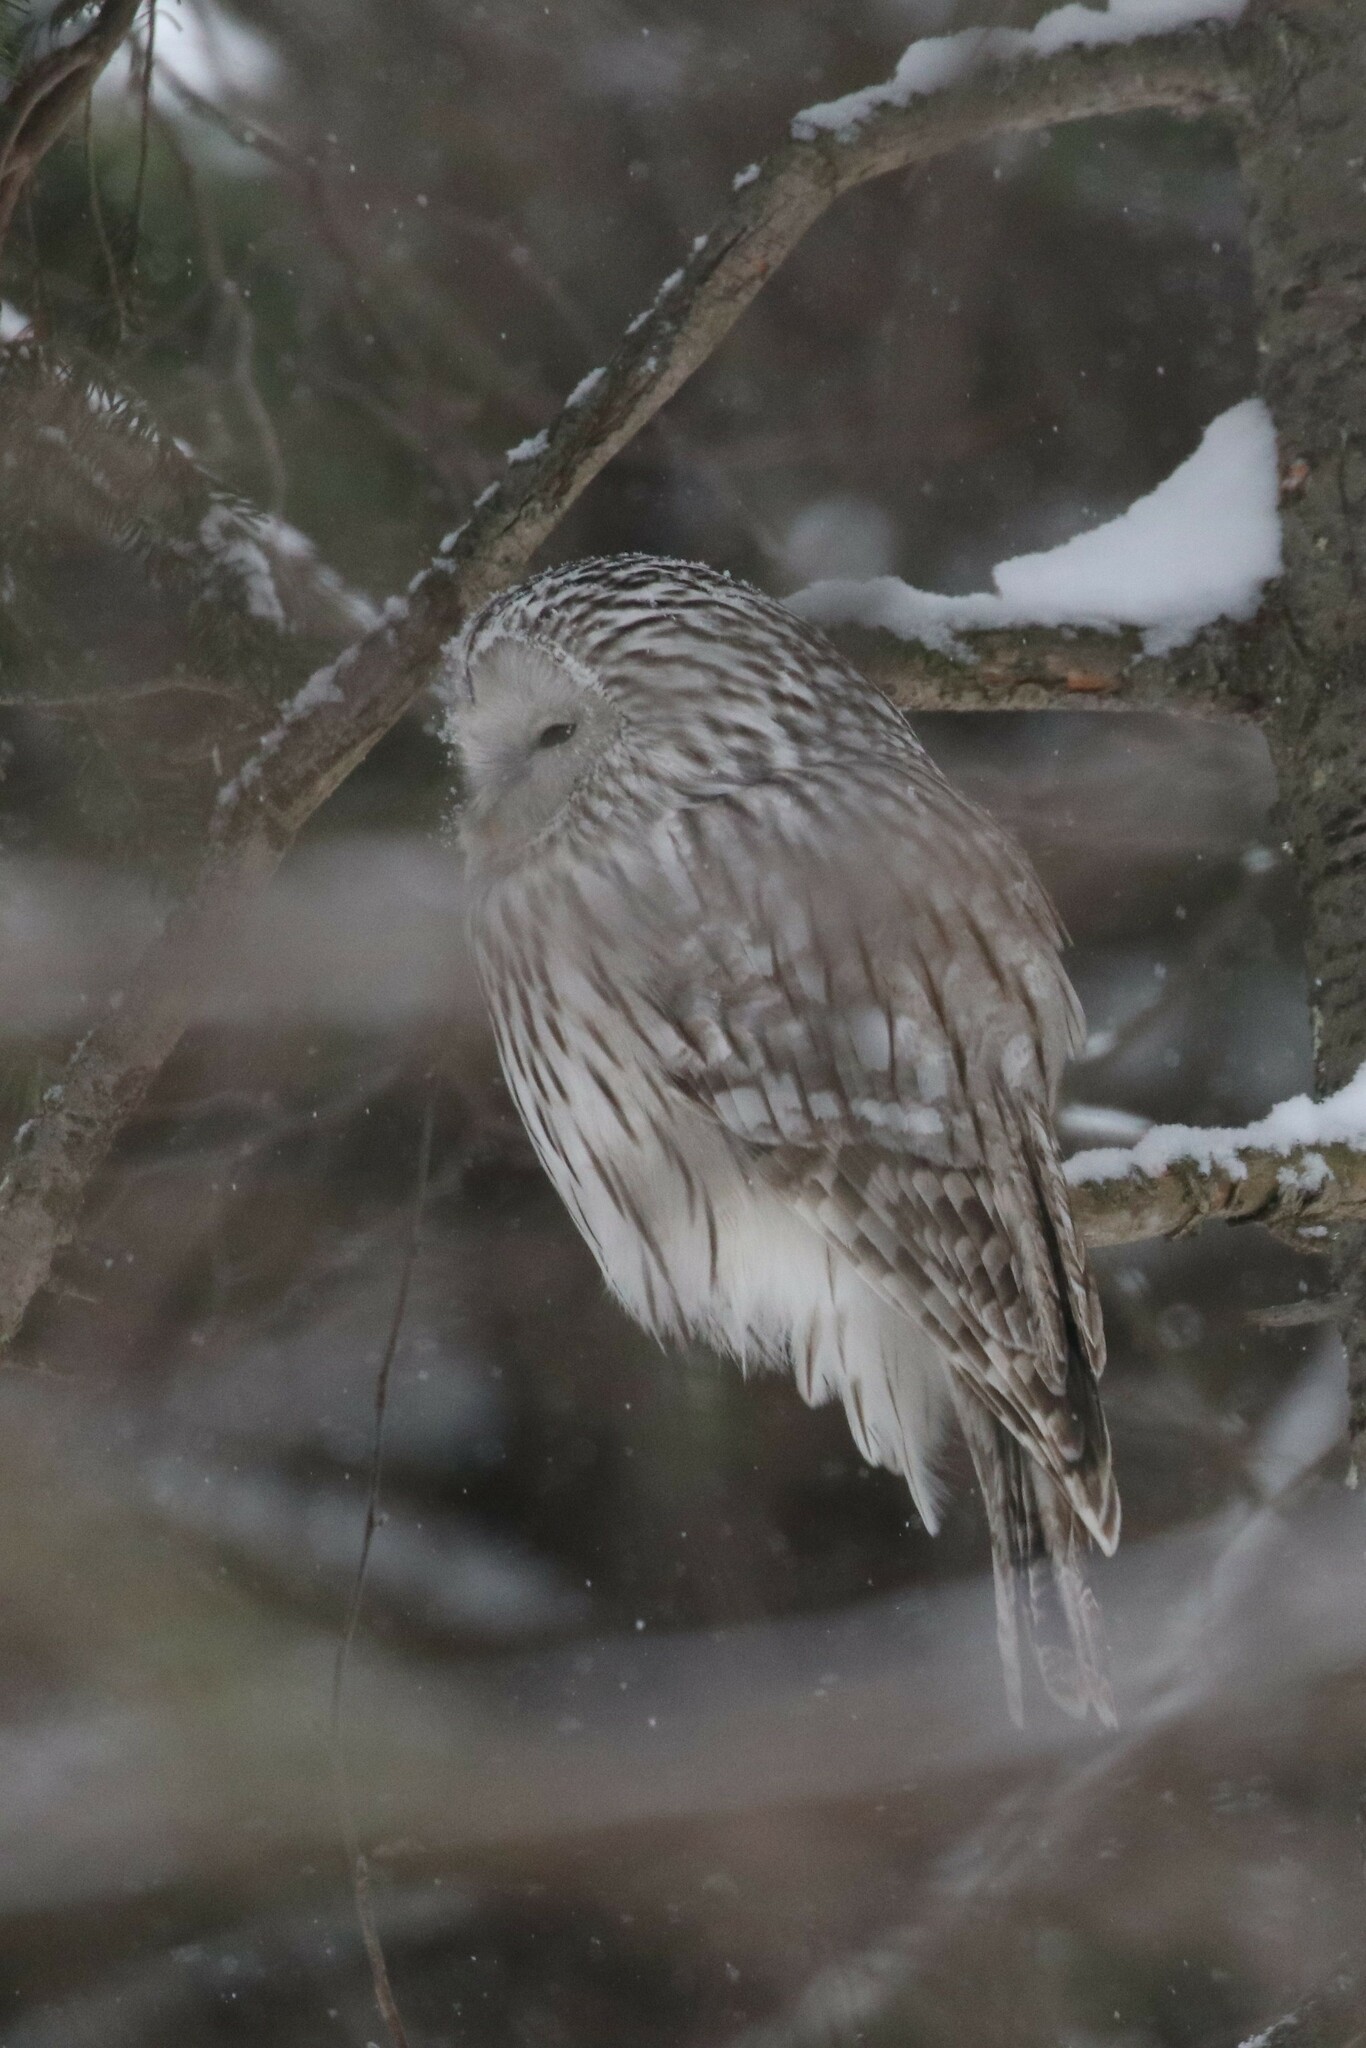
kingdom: Animalia
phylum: Chordata
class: Aves
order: Strigiformes
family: Strigidae
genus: Strix
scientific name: Strix uralensis
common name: Ural owl
